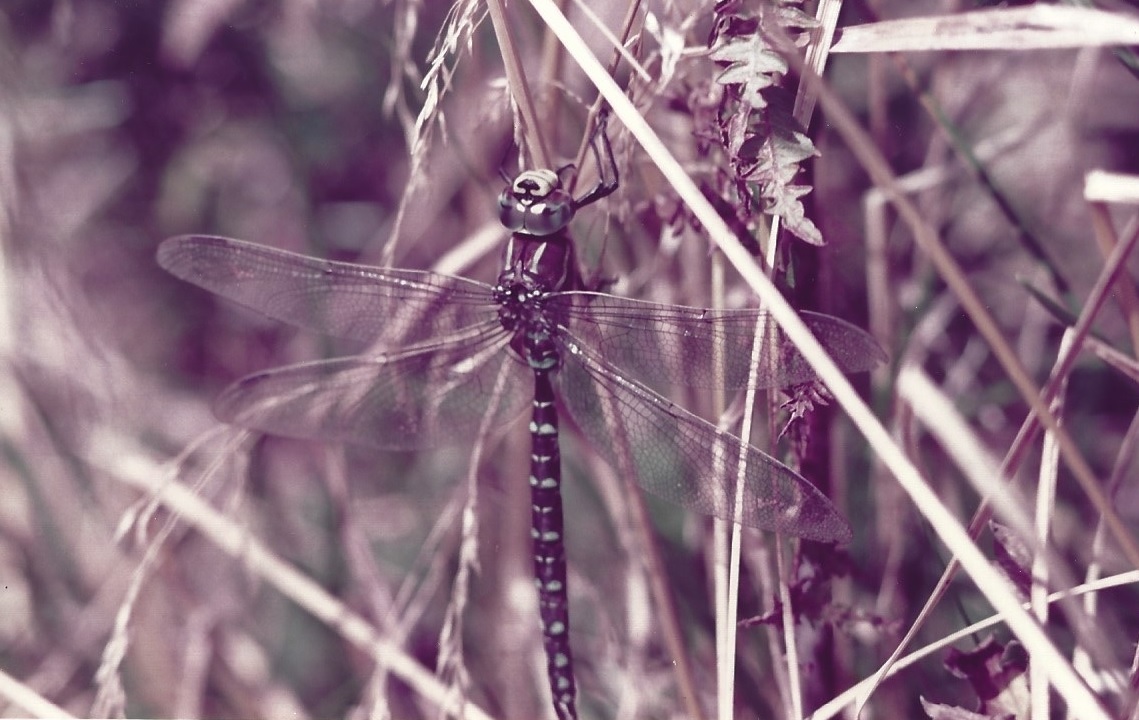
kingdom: Animalia
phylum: Arthropoda
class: Insecta
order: Odonata
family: Aeshnidae
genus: Aeshna
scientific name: Aeshna juncea
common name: Moorland hawker
